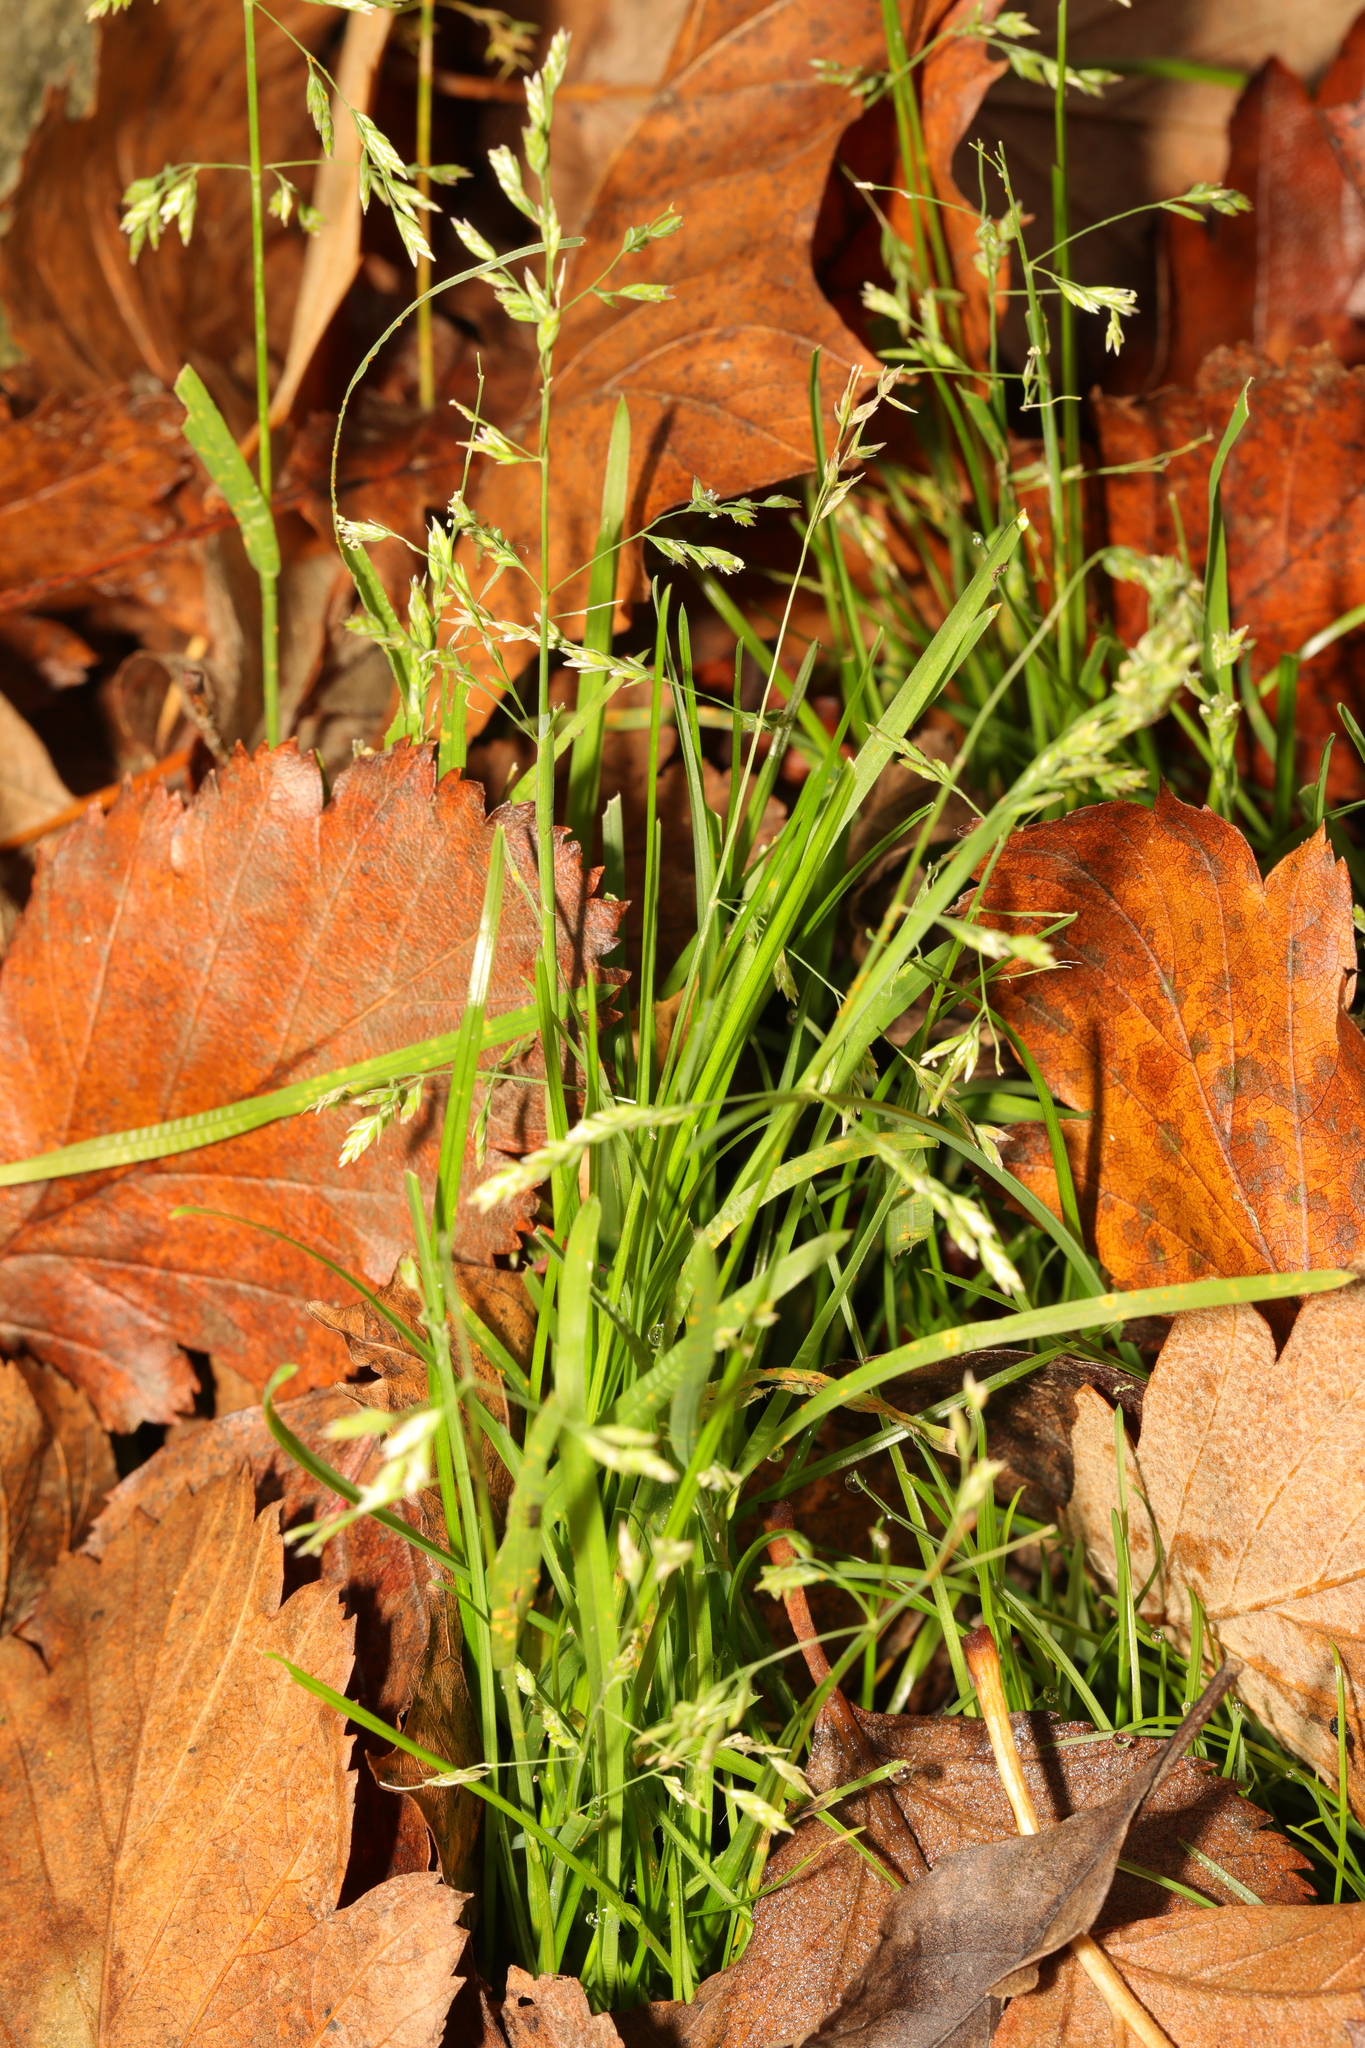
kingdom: Plantae
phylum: Tracheophyta
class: Liliopsida
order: Poales
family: Poaceae
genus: Poa
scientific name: Poa annua
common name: Annual bluegrass
